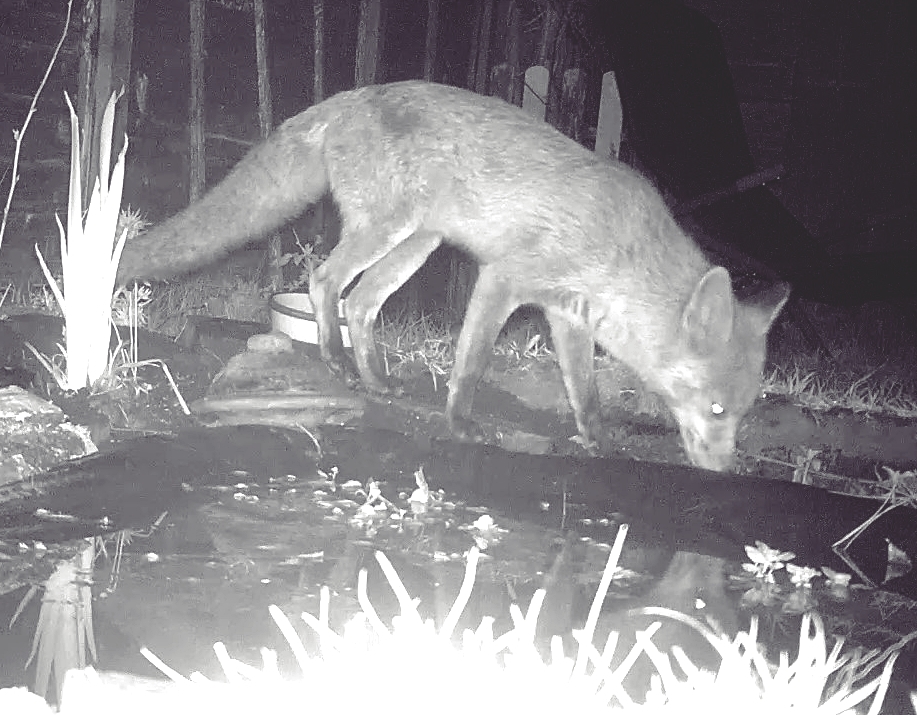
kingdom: Animalia
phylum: Chordata
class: Mammalia
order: Carnivora
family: Canidae
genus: Vulpes
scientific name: Vulpes vulpes
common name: Red fox
